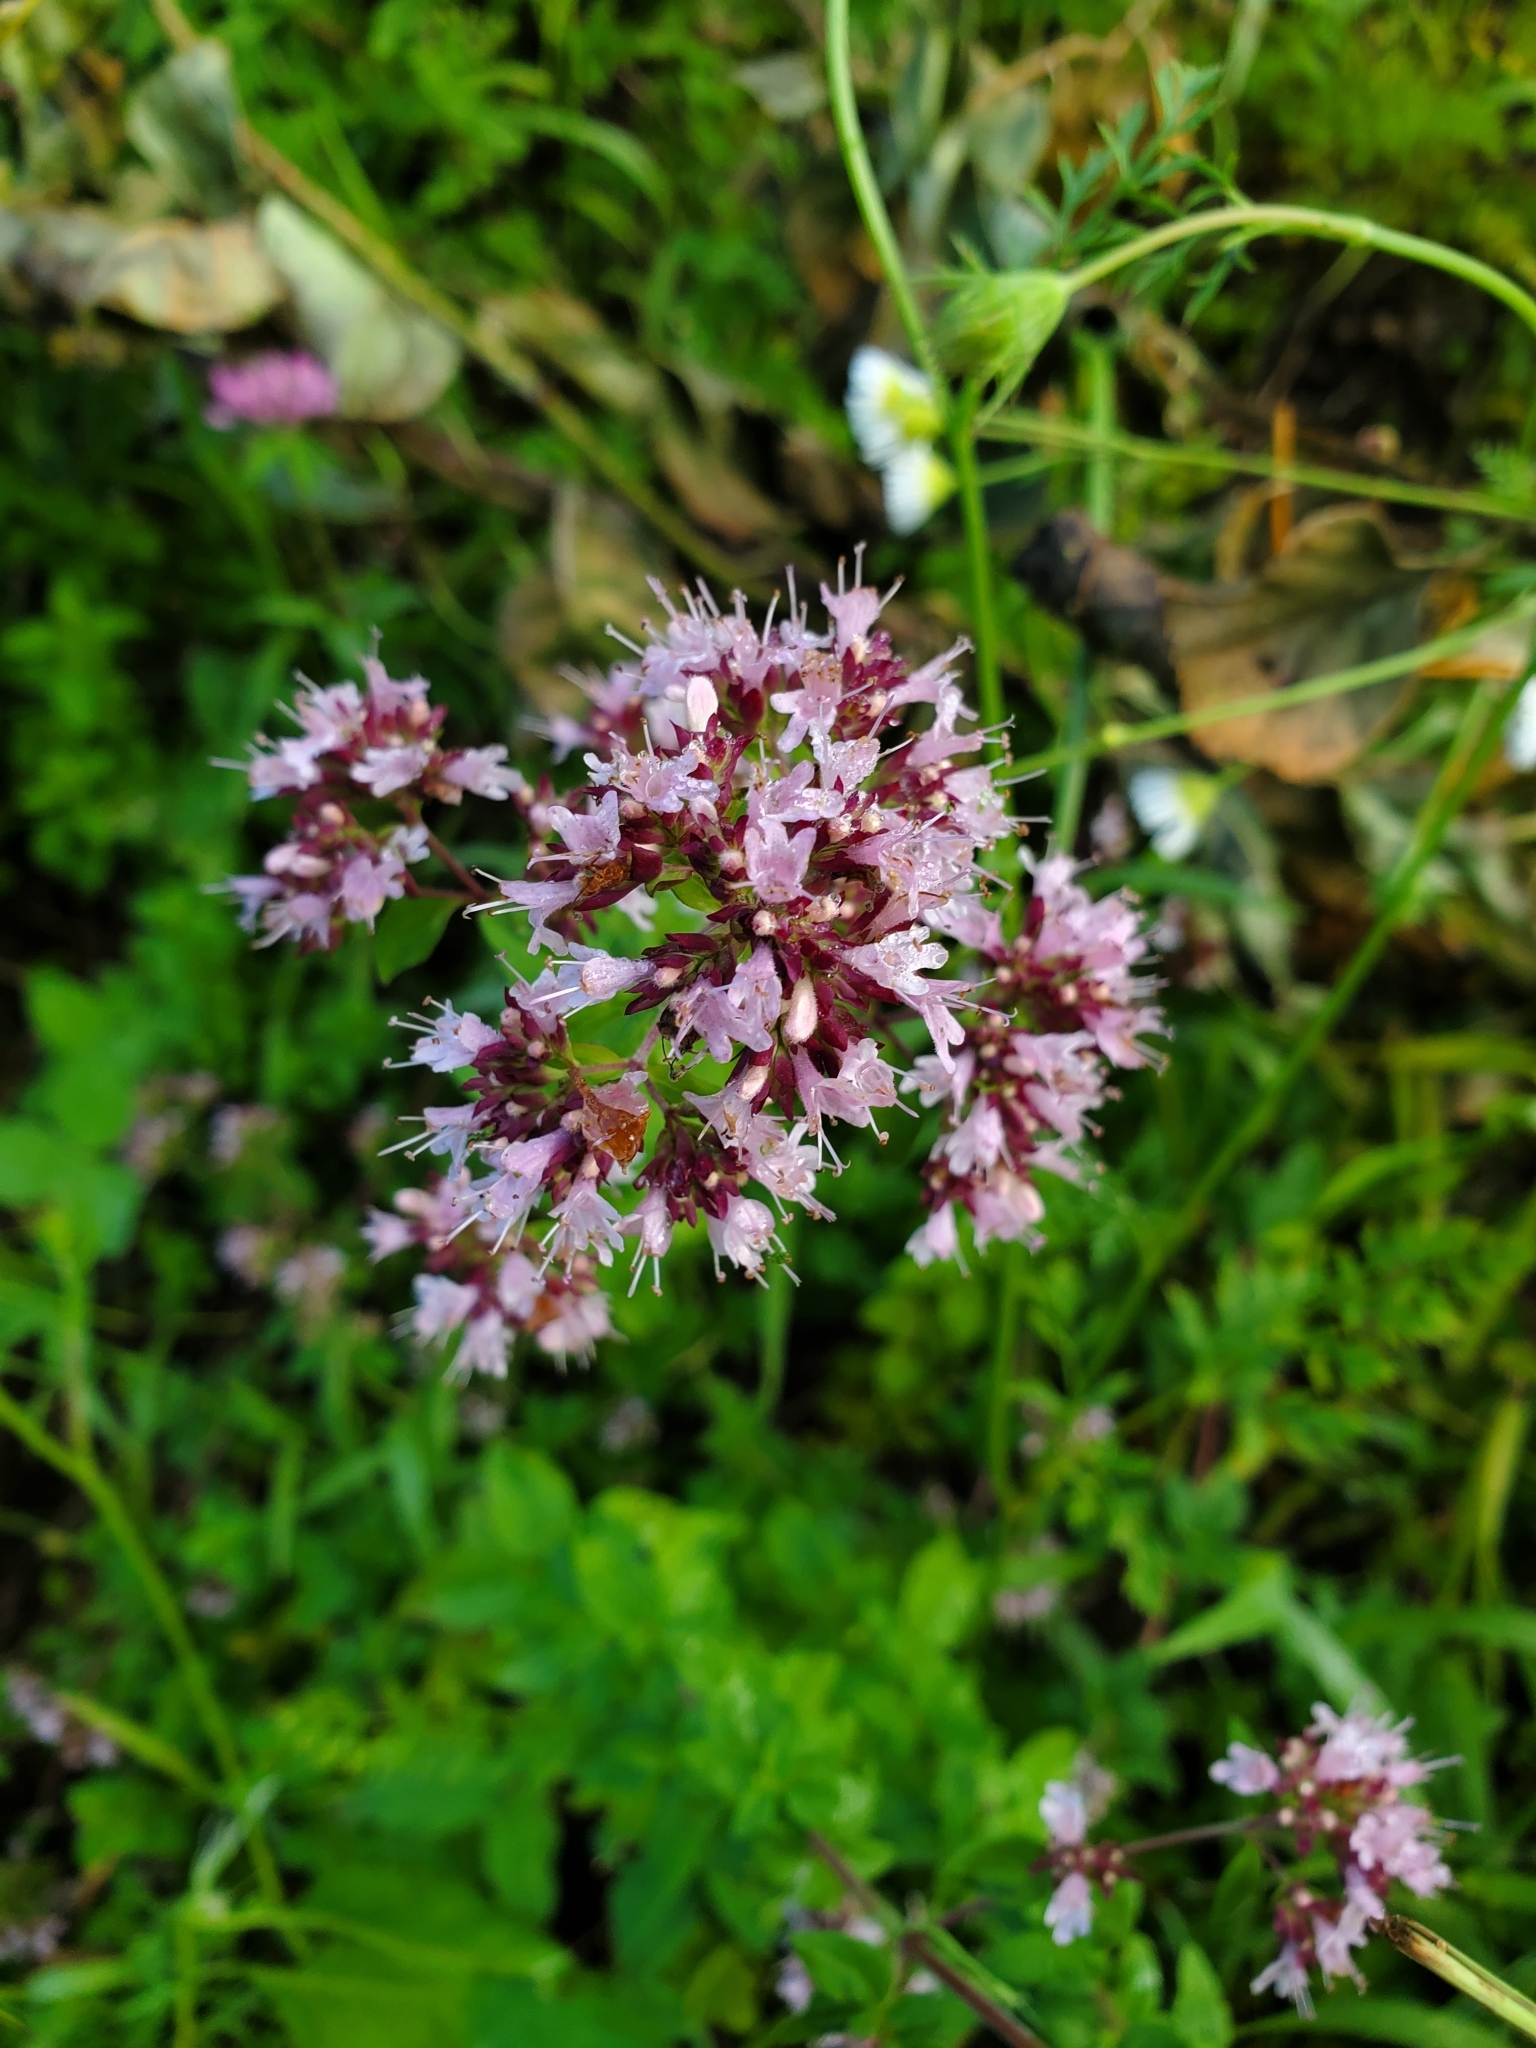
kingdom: Plantae
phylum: Tracheophyta
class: Magnoliopsida
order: Lamiales
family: Lamiaceae
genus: Origanum
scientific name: Origanum vulgare
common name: Wild marjoram
